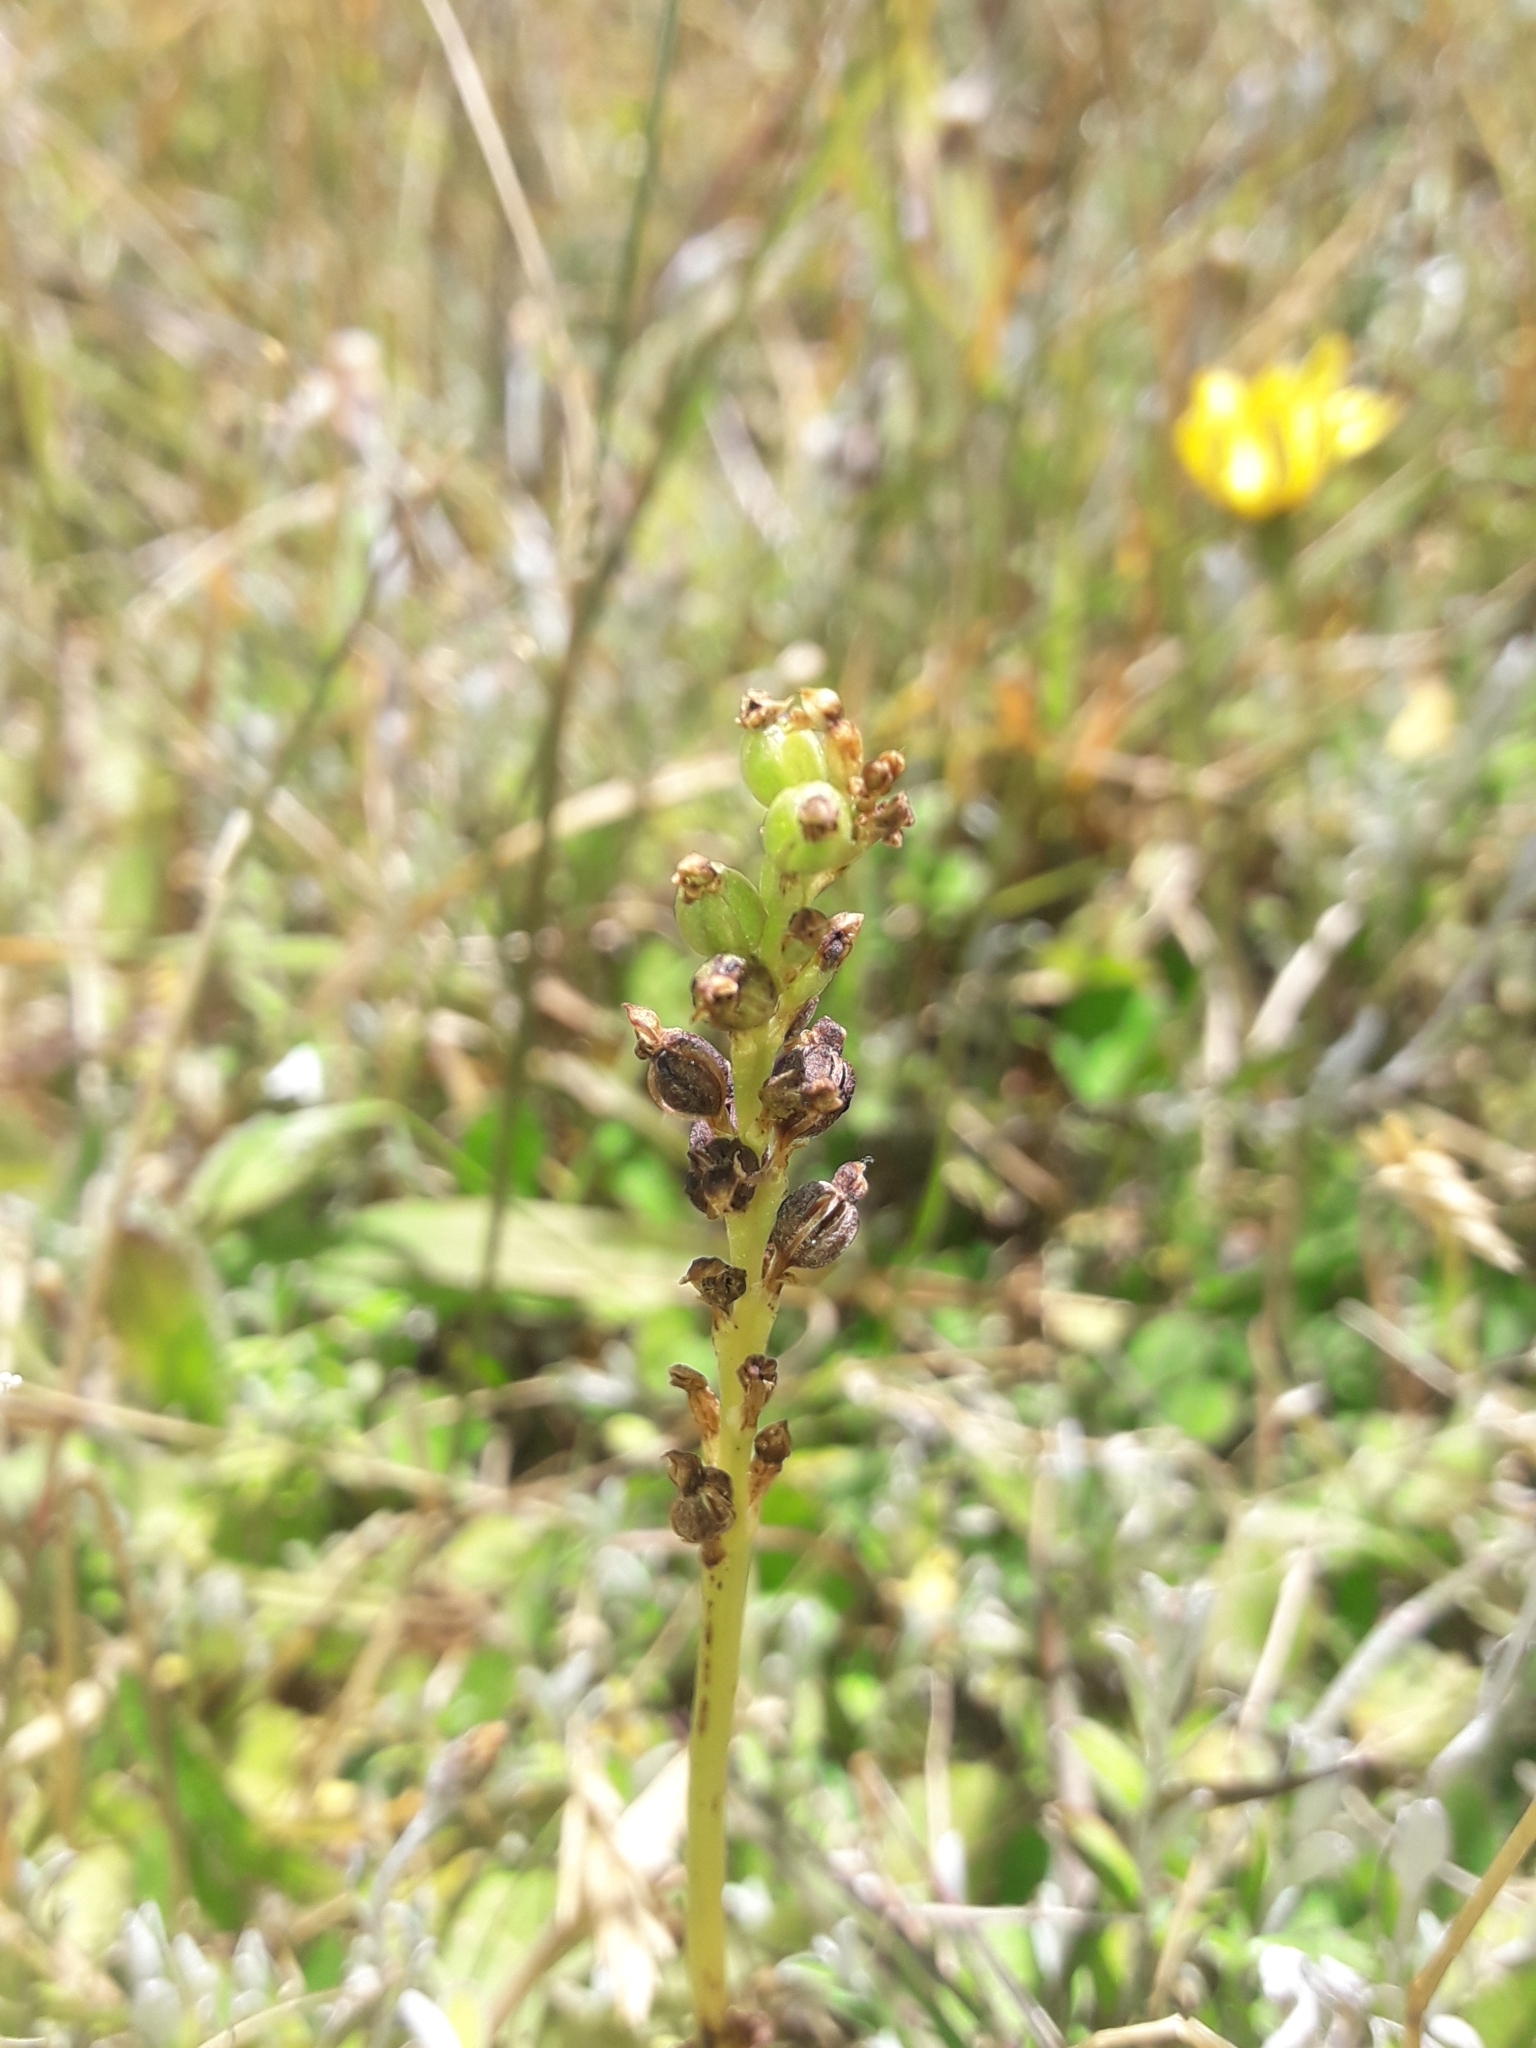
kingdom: Plantae
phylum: Tracheophyta
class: Liliopsida
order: Asparagales
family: Orchidaceae
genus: Microtis
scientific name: Microtis unifolia
